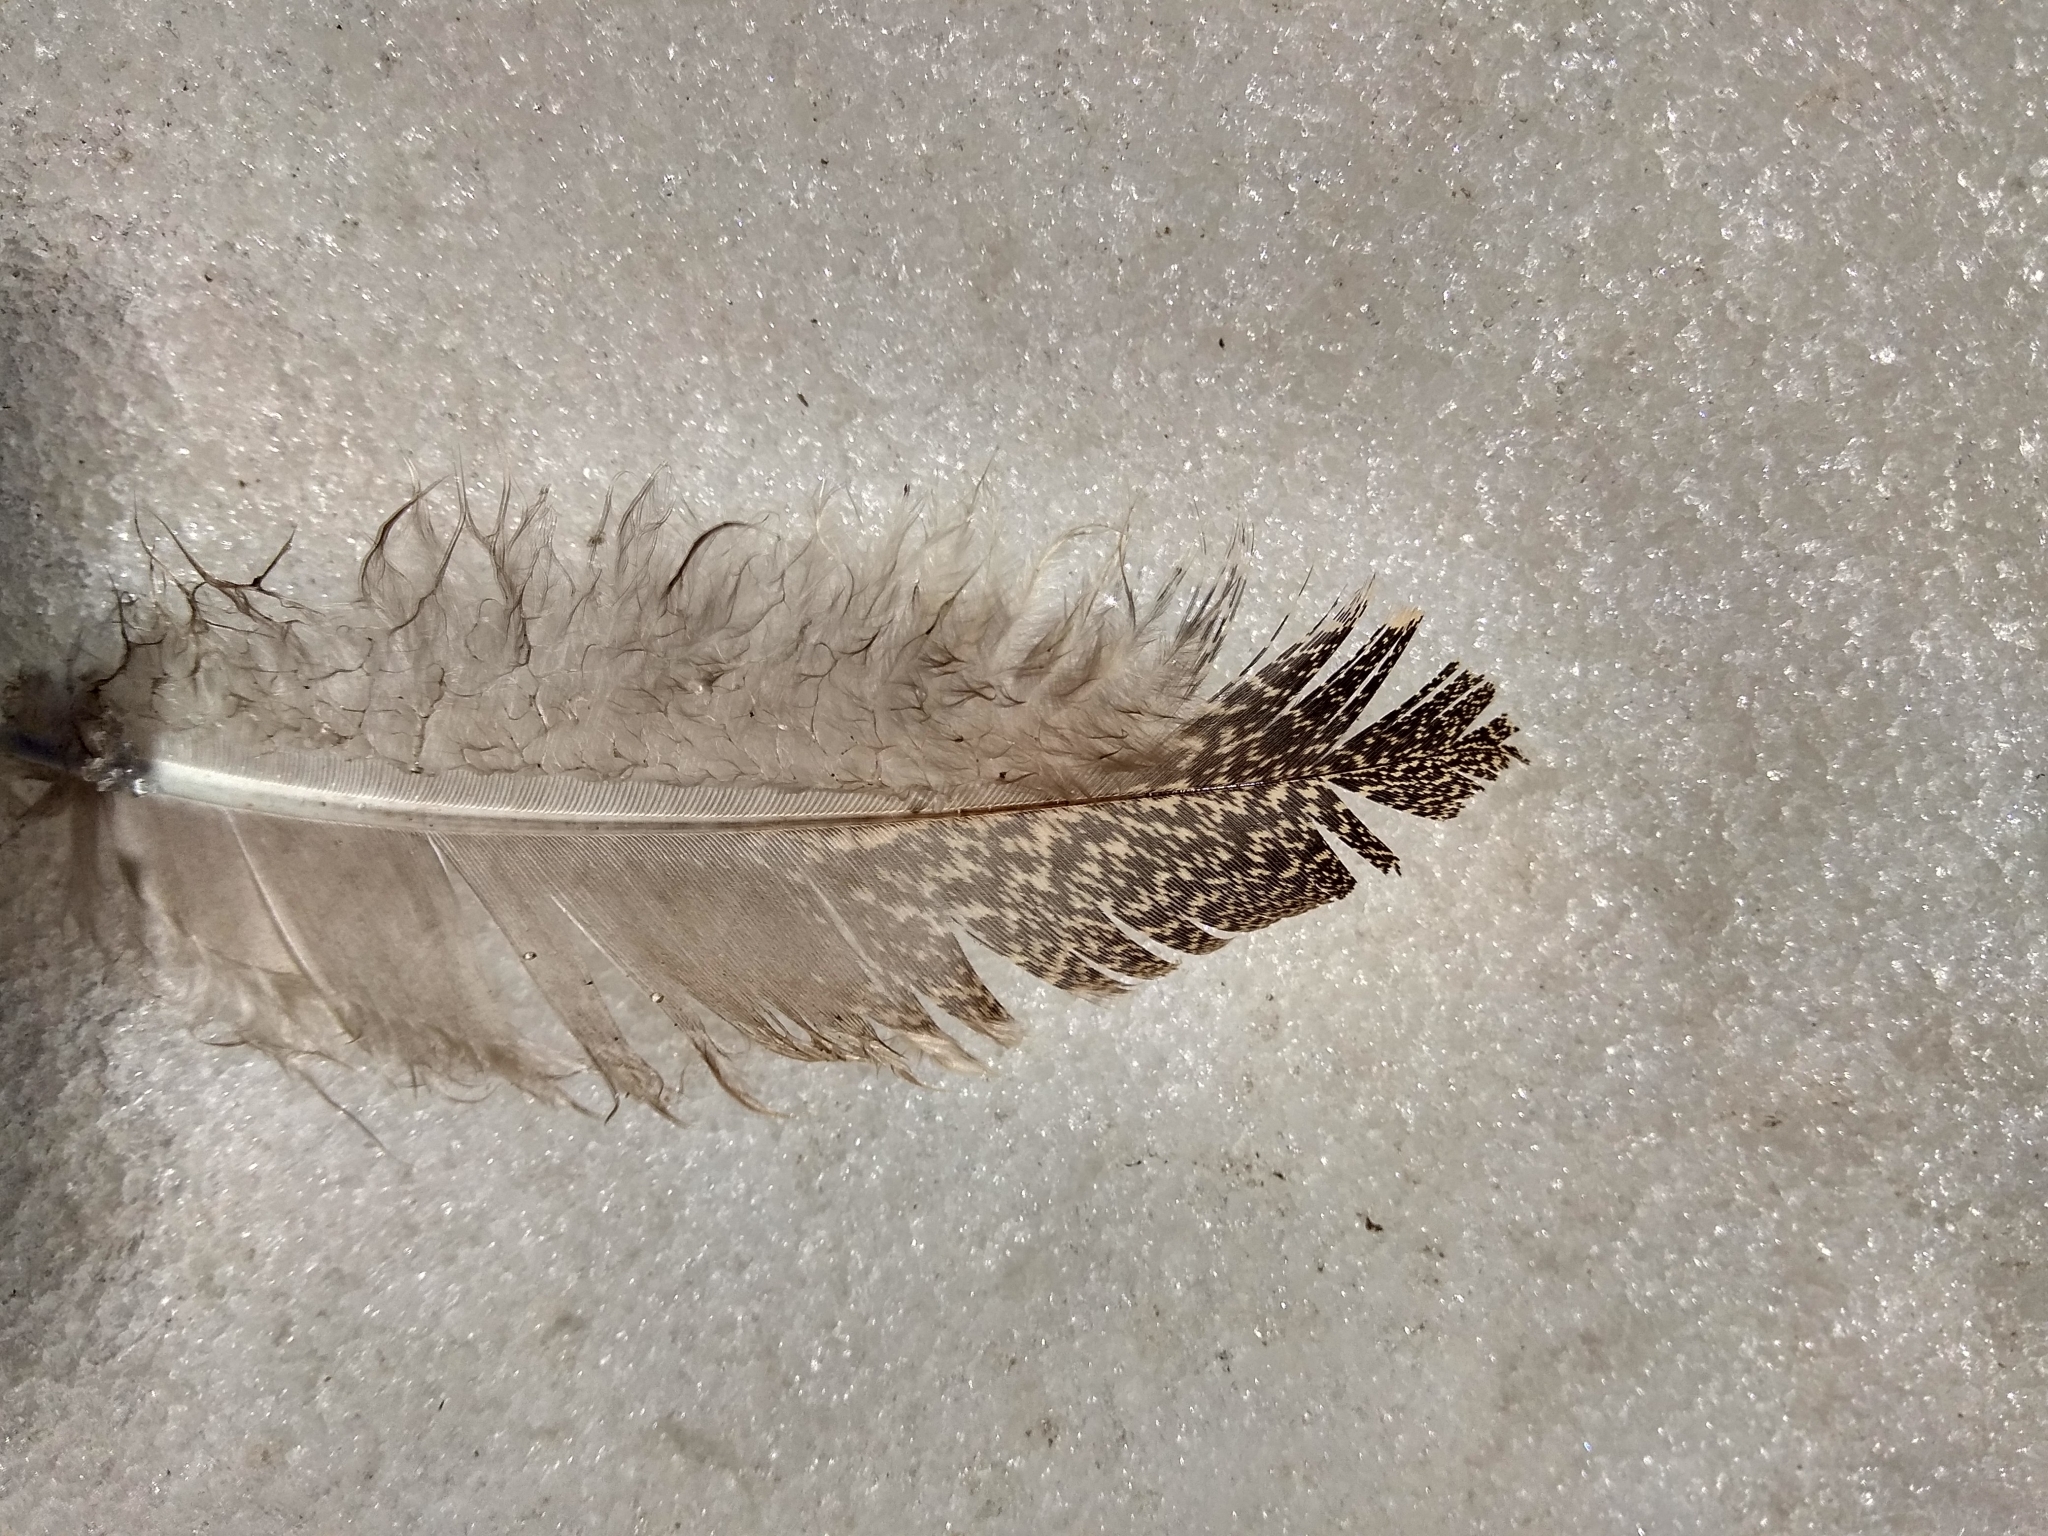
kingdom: Animalia
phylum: Chordata
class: Aves
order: Galliformes
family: Phasianidae
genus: Tetraogallus
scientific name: Tetraogallus himalayensis
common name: Himalayan snowcock
